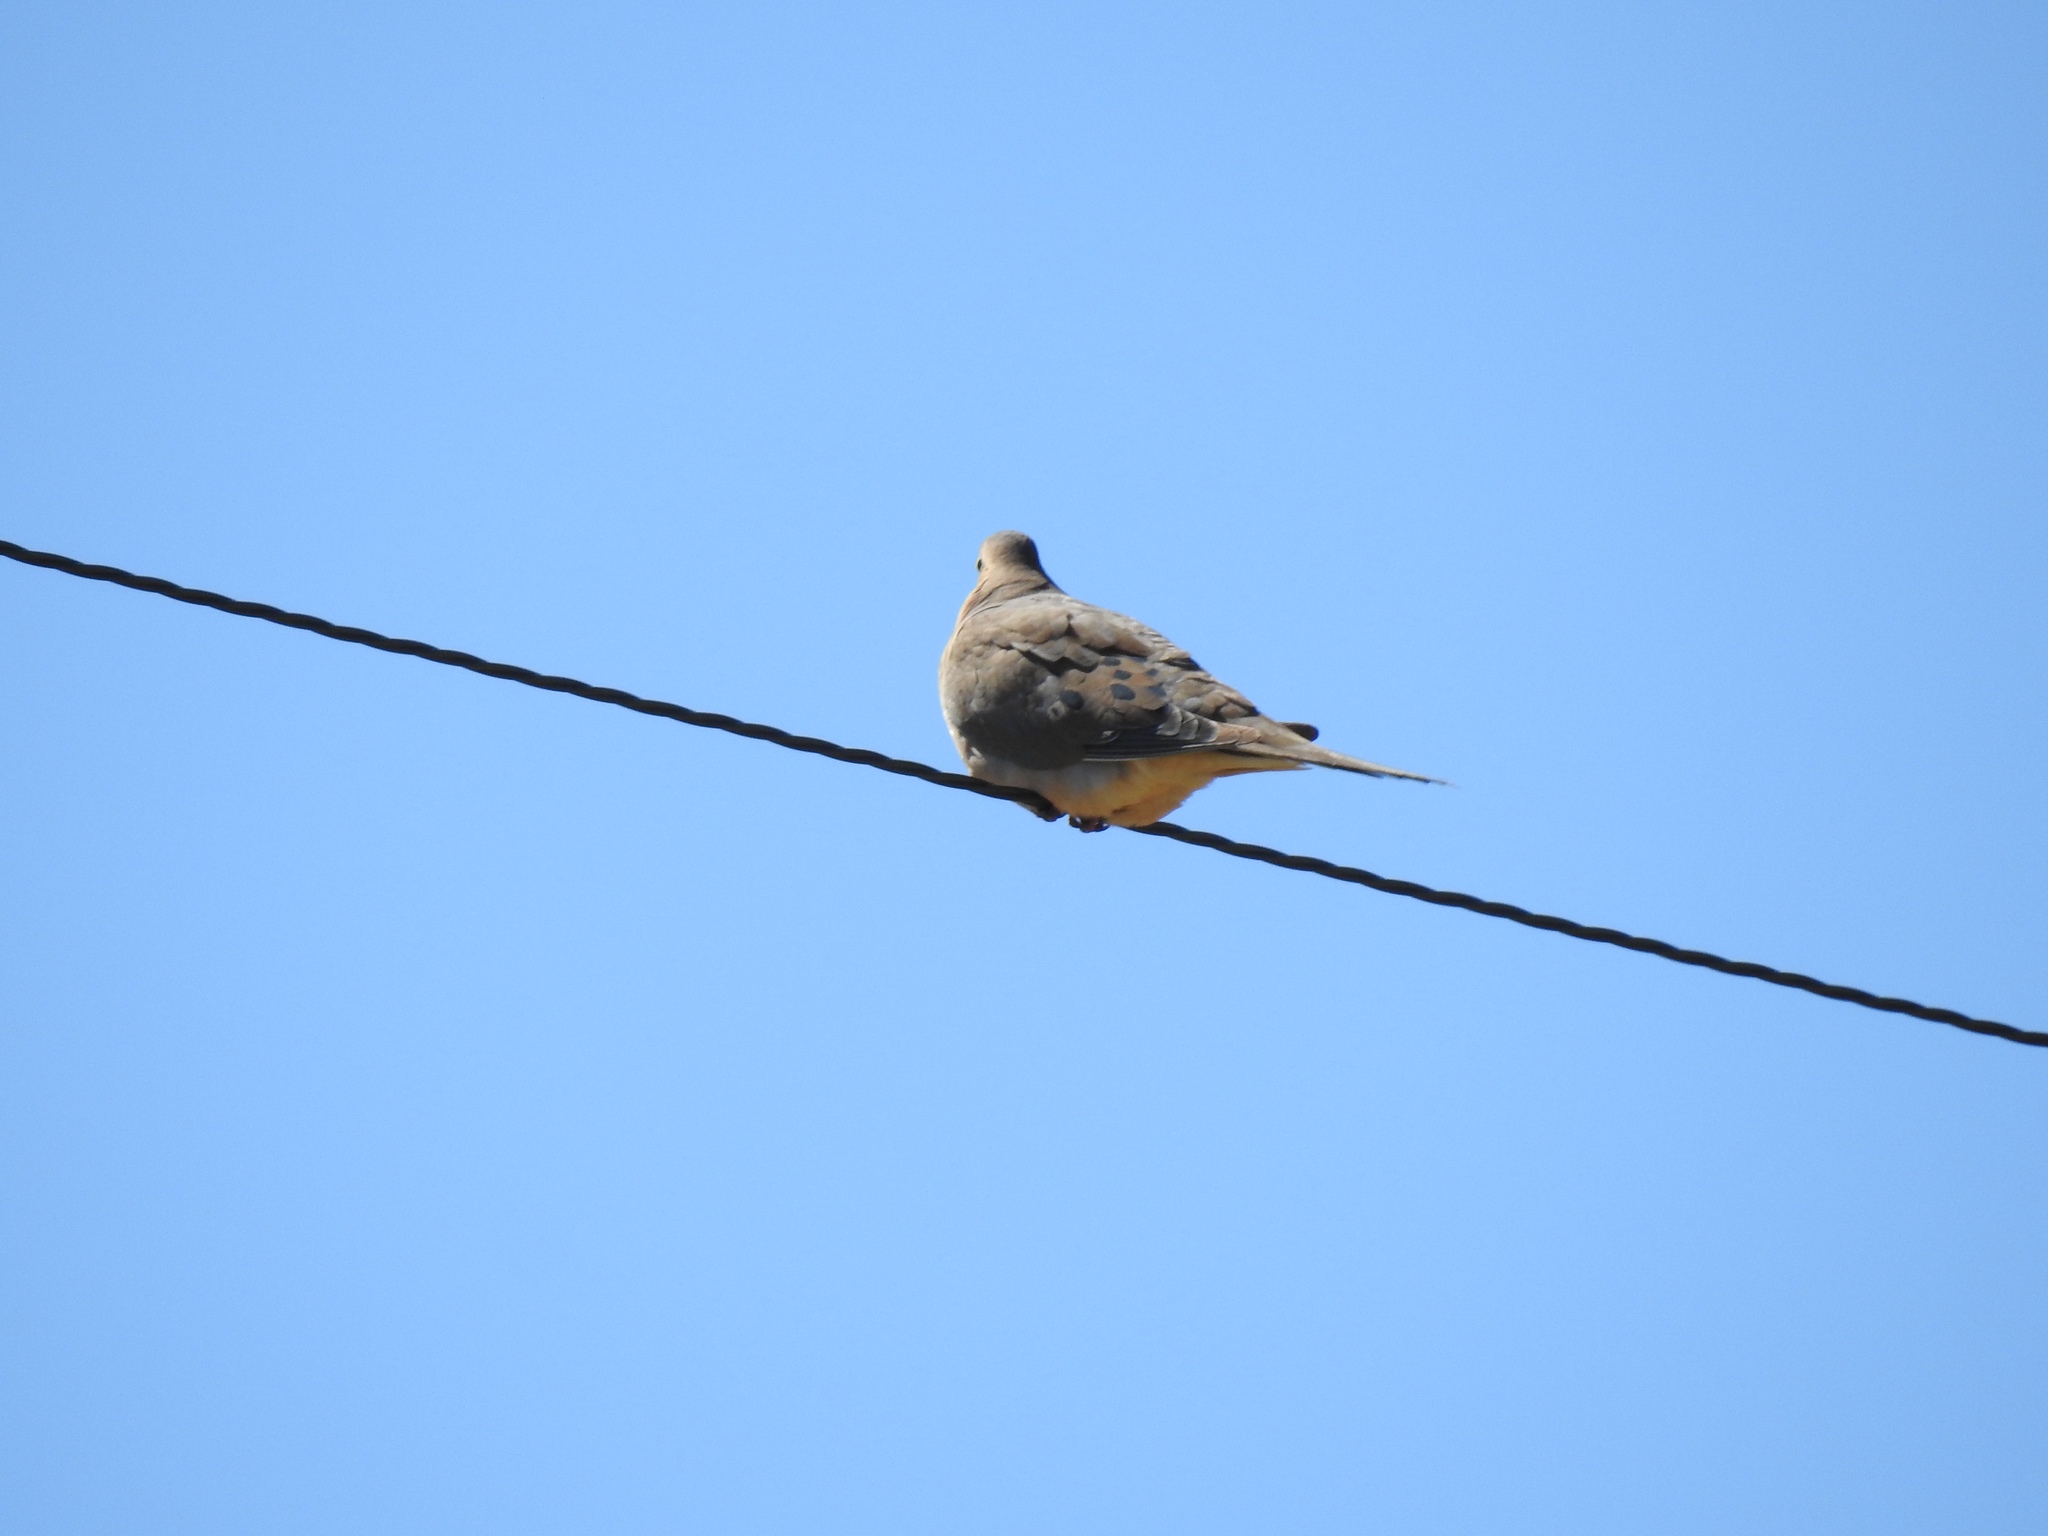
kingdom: Animalia
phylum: Chordata
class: Aves
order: Columbiformes
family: Columbidae
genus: Zenaida
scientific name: Zenaida macroura
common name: Mourning dove
